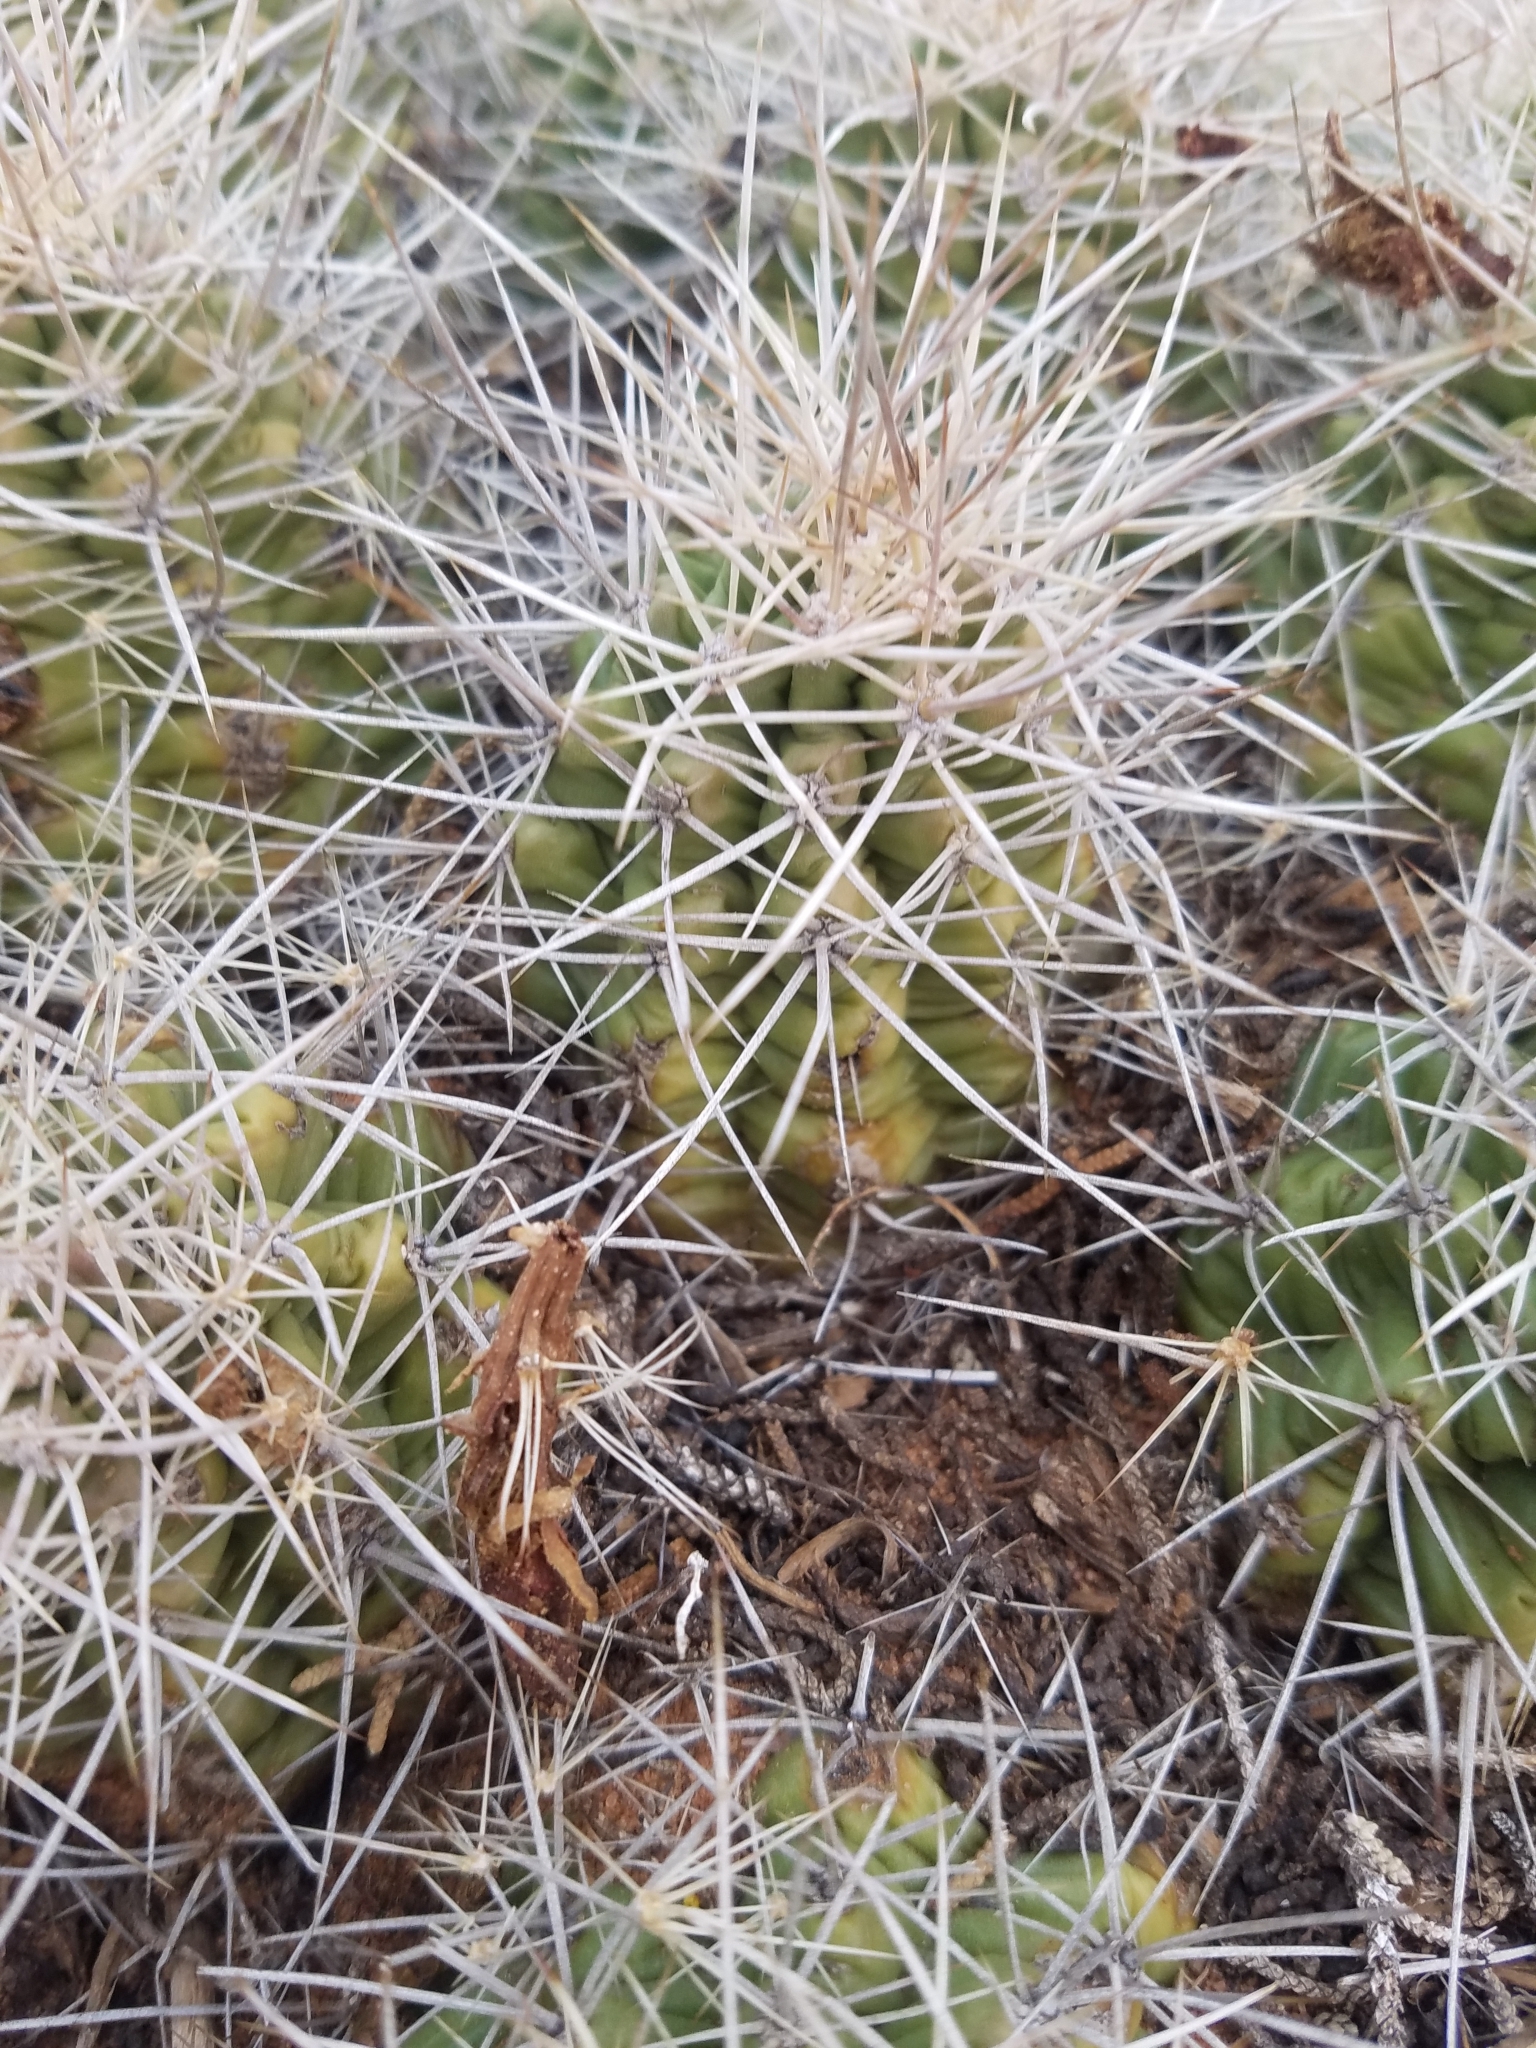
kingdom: Plantae
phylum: Tracheophyta
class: Magnoliopsida
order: Caryophyllales
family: Cactaceae
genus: Echinocereus
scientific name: Echinocereus triglochidiatus
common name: Claretcup hedgehog
